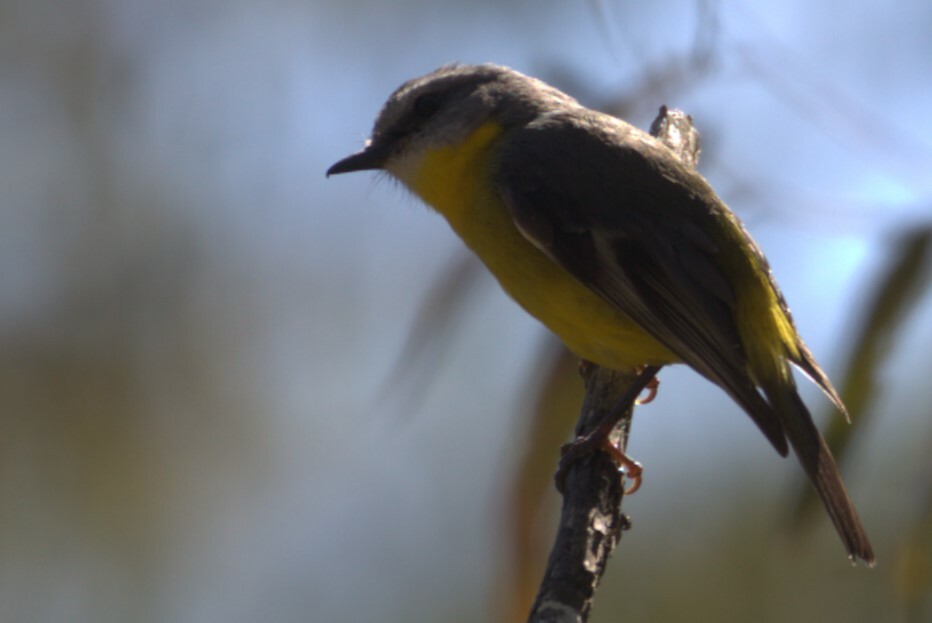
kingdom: Animalia
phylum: Chordata
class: Aves
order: Passeriformes
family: Petroicidae
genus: Eopsaltria
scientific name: Eopsaltria australis
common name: Eastern yellow robin
